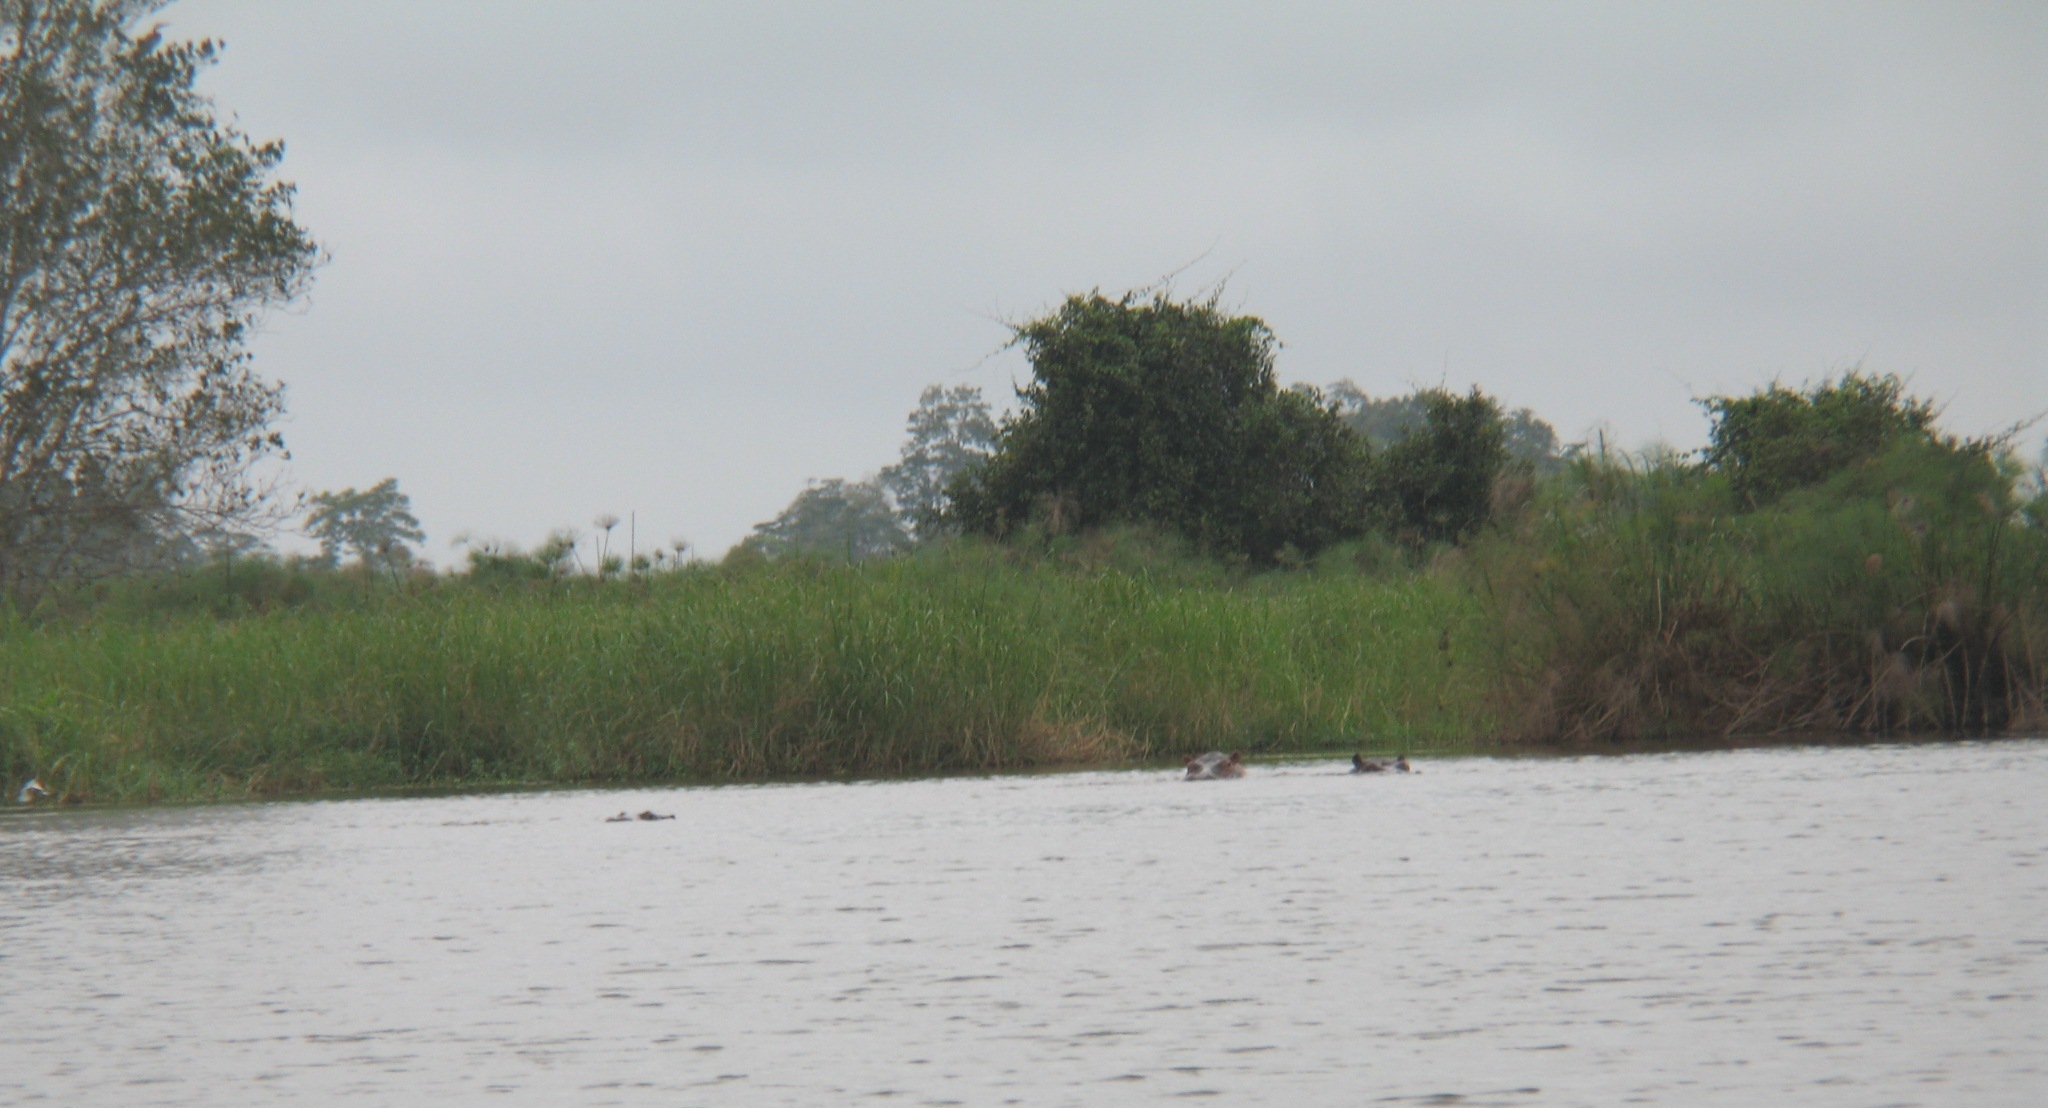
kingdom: Animalia
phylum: Chordata
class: Mammalia
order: Artiodactyla
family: Hippopotamidae
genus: Hippopotamus
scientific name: Hippopotamus amphibius
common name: Common hippopotamus
